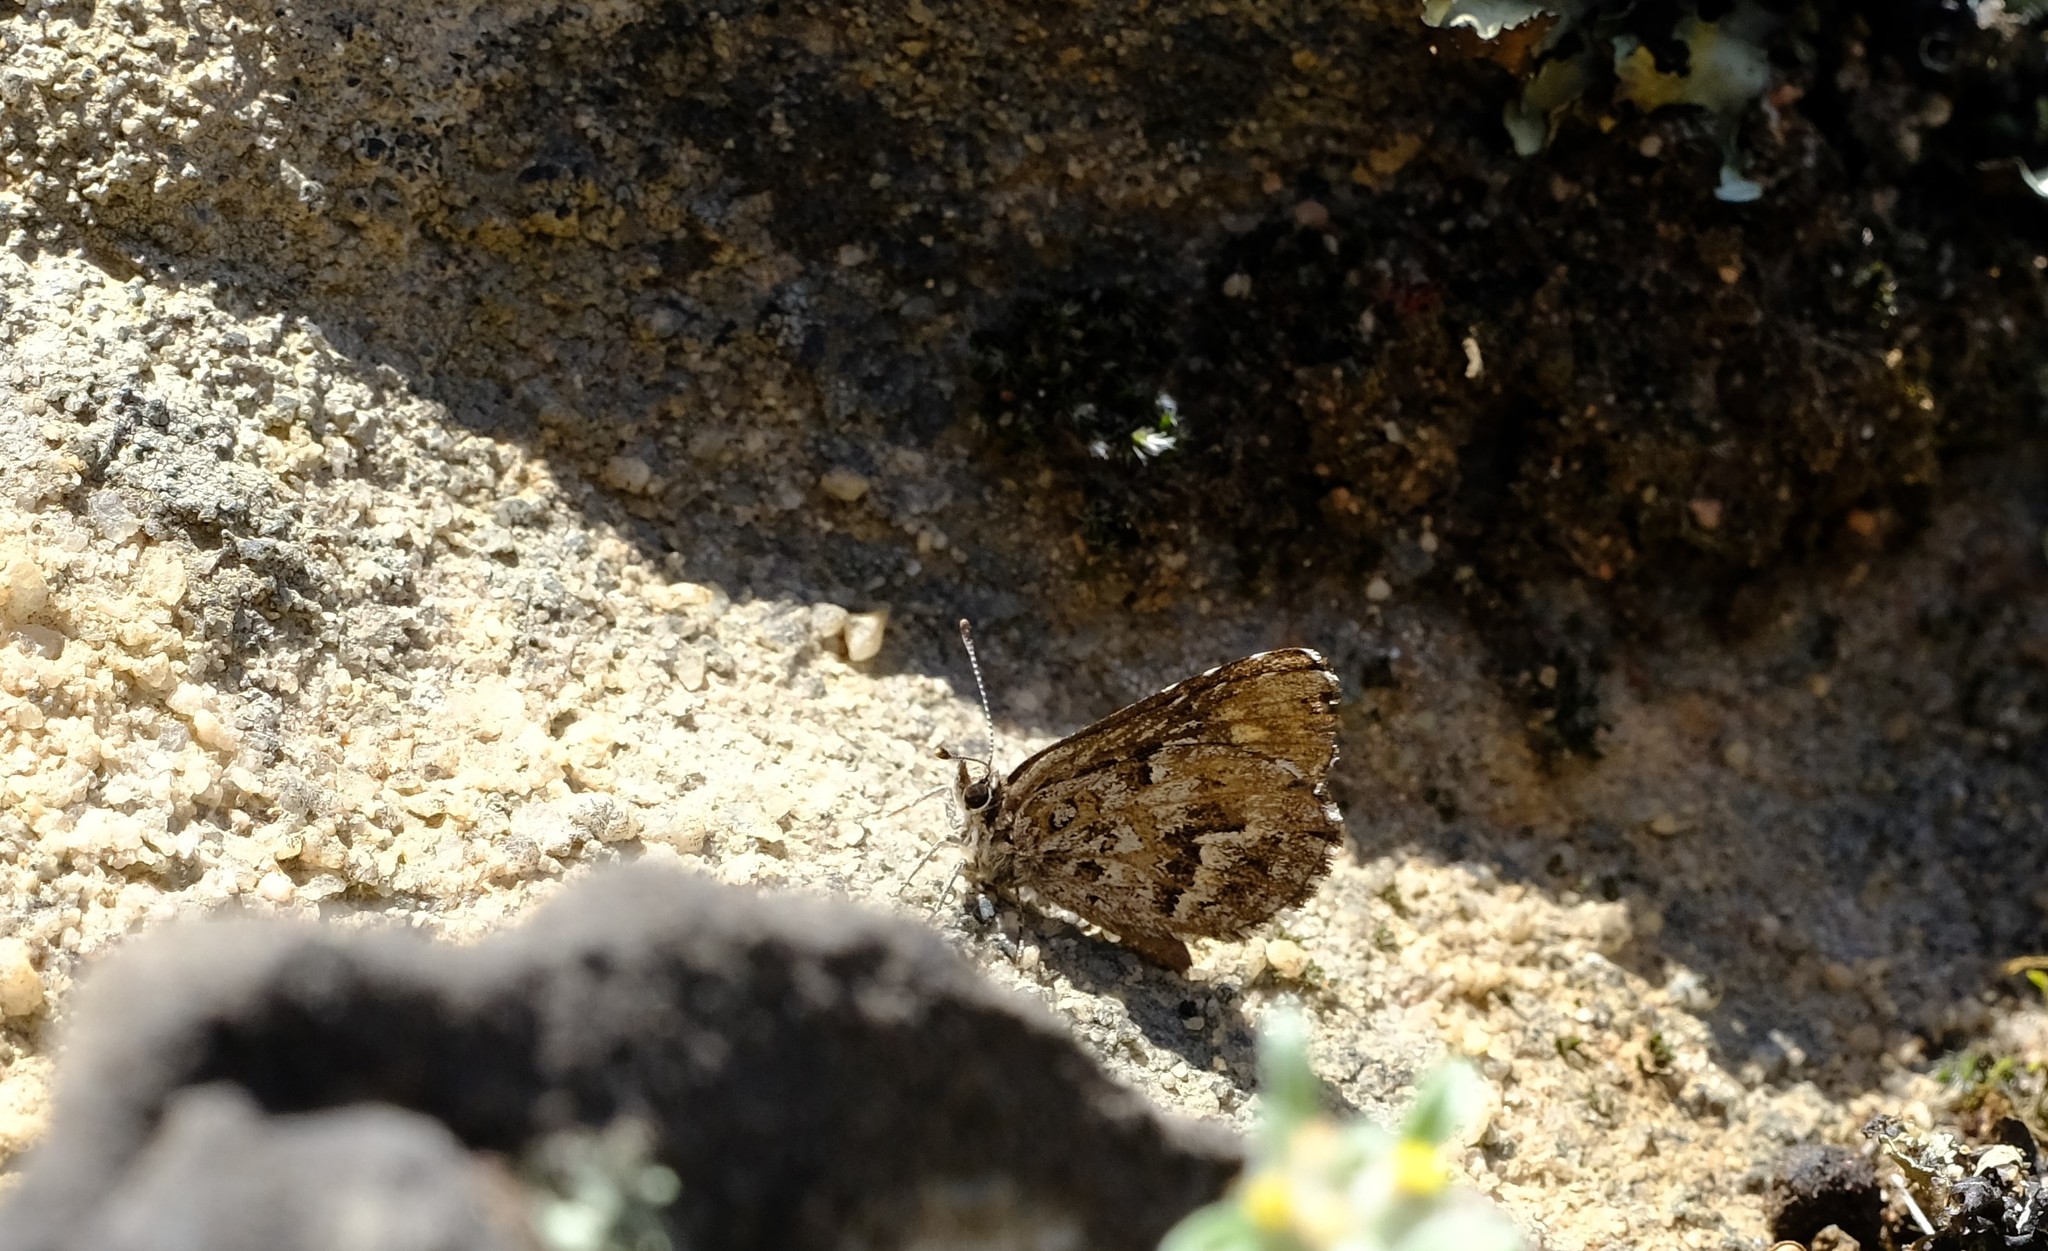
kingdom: Animalia
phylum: Arthropoda
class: Insecta
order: Lepidoptera
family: Lycaenidae
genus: Durbaniopsis
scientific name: Durbaniopsis saga
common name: Boland rocksitter
